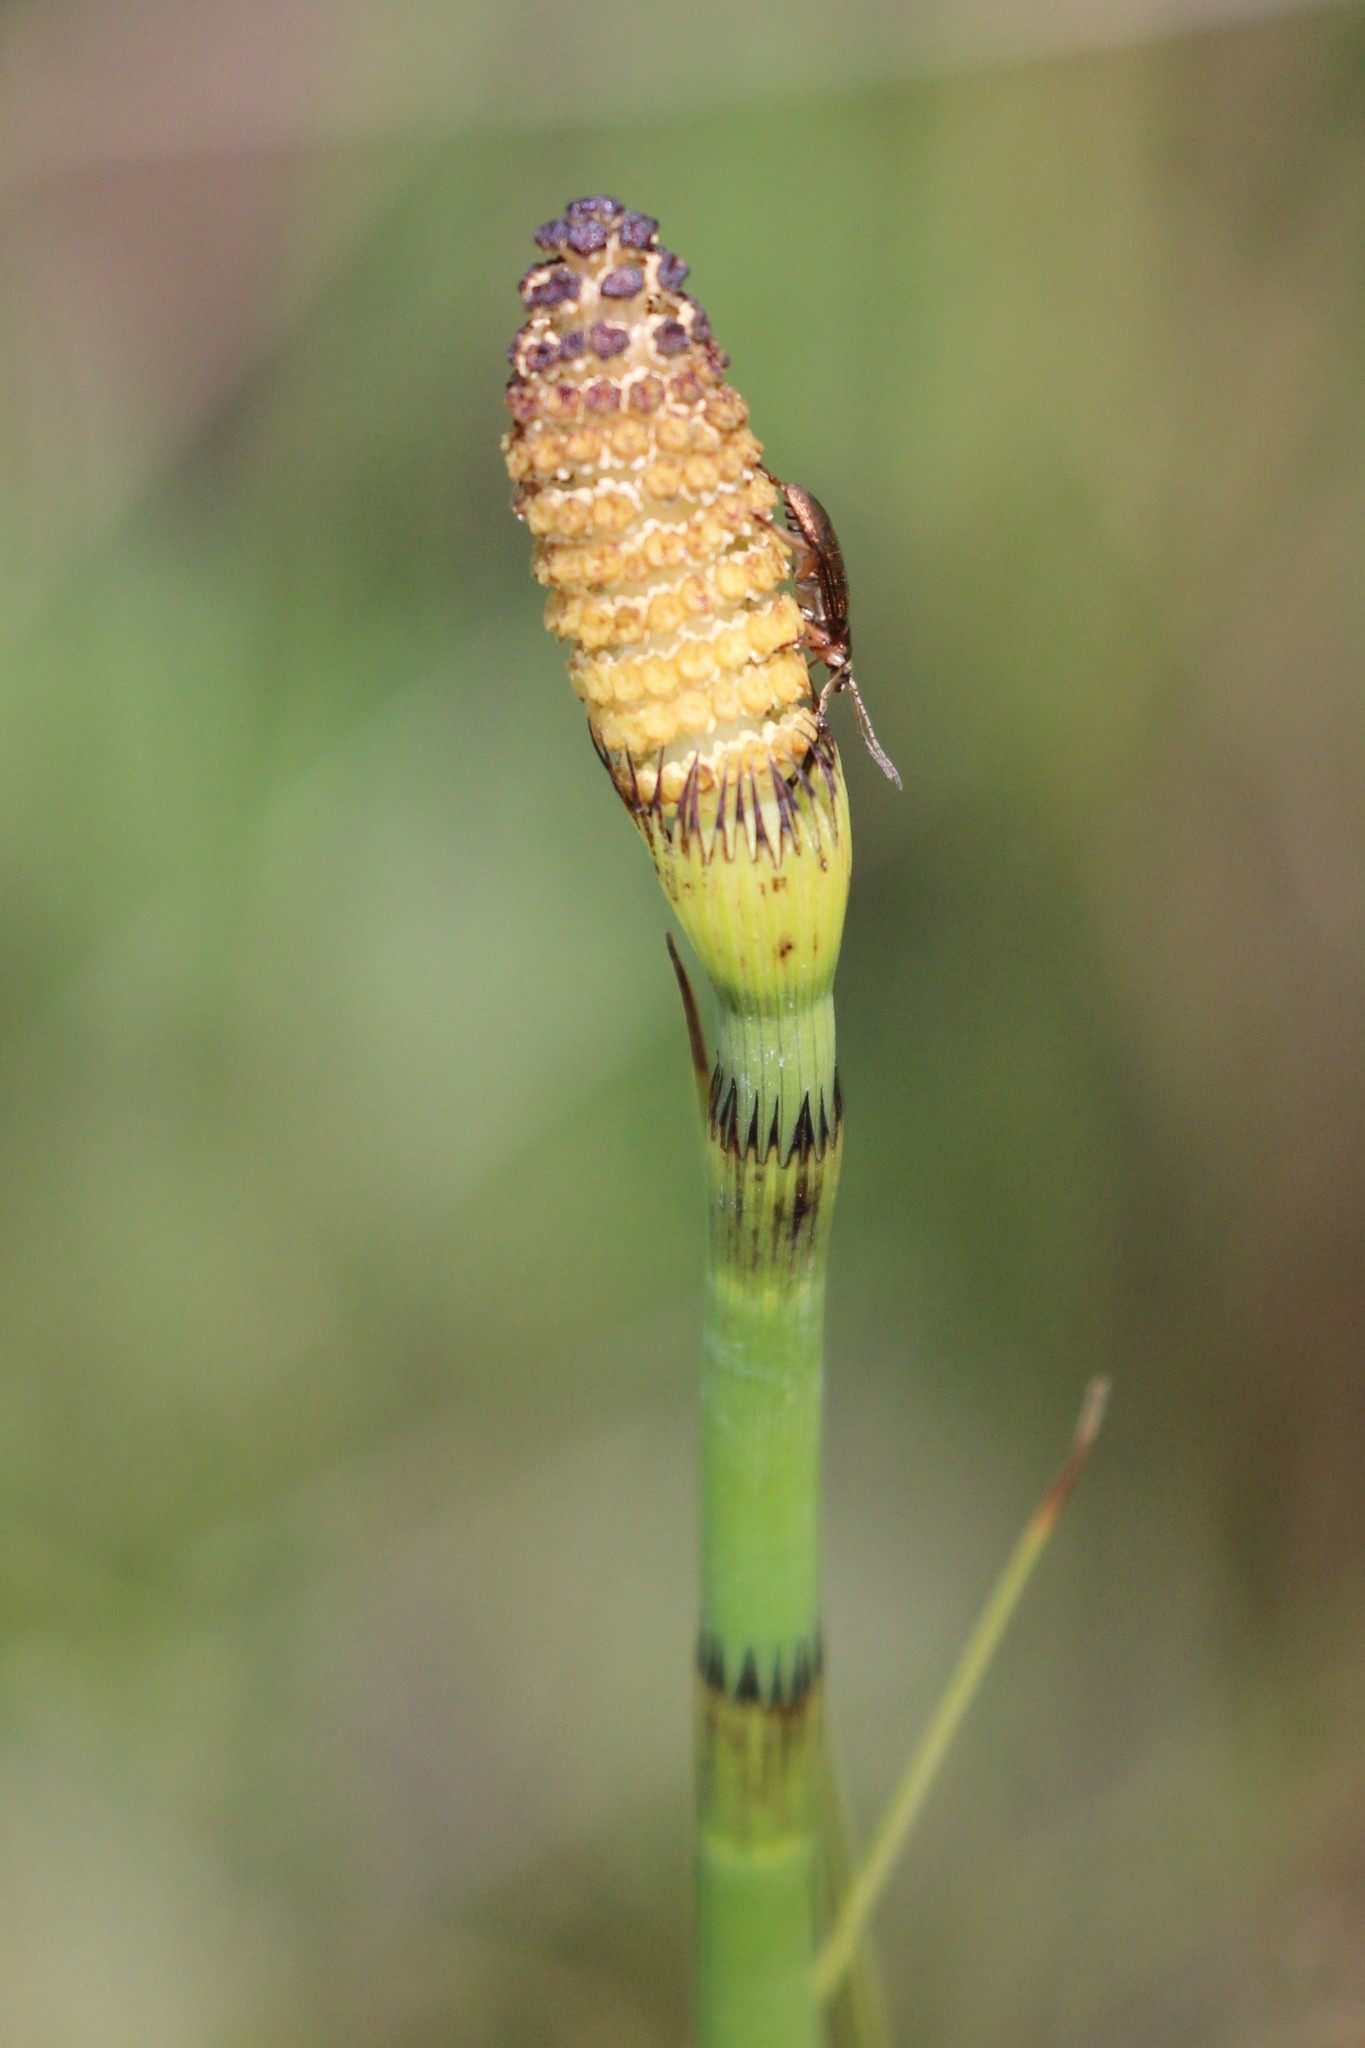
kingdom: Plantae
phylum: Tracheophyta
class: Polypodiopsida
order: Equisetales
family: Equisetaceae
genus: Equisetum
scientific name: Equisetum fluviatile
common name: Water horsetail
